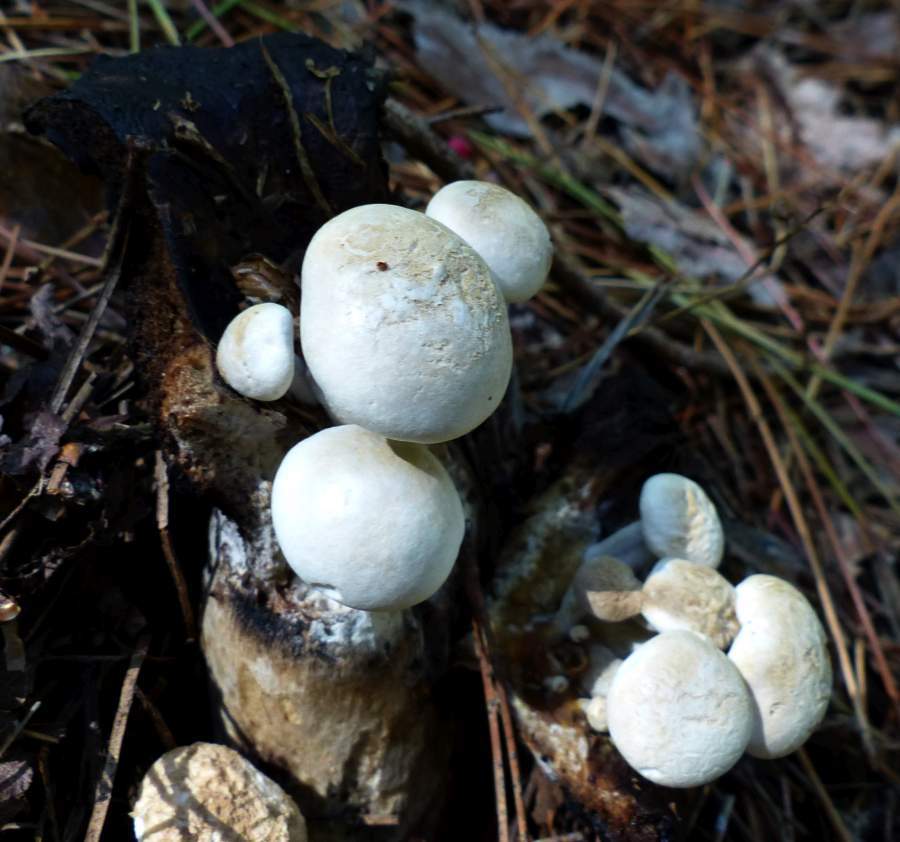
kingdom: Fungi
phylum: Basidiomycota
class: Agaricomycetes
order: Agaricales
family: Lyophyllaceae
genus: Asterophora
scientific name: Asterophora lycoperdoides
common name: Pick-a-back toadstool
